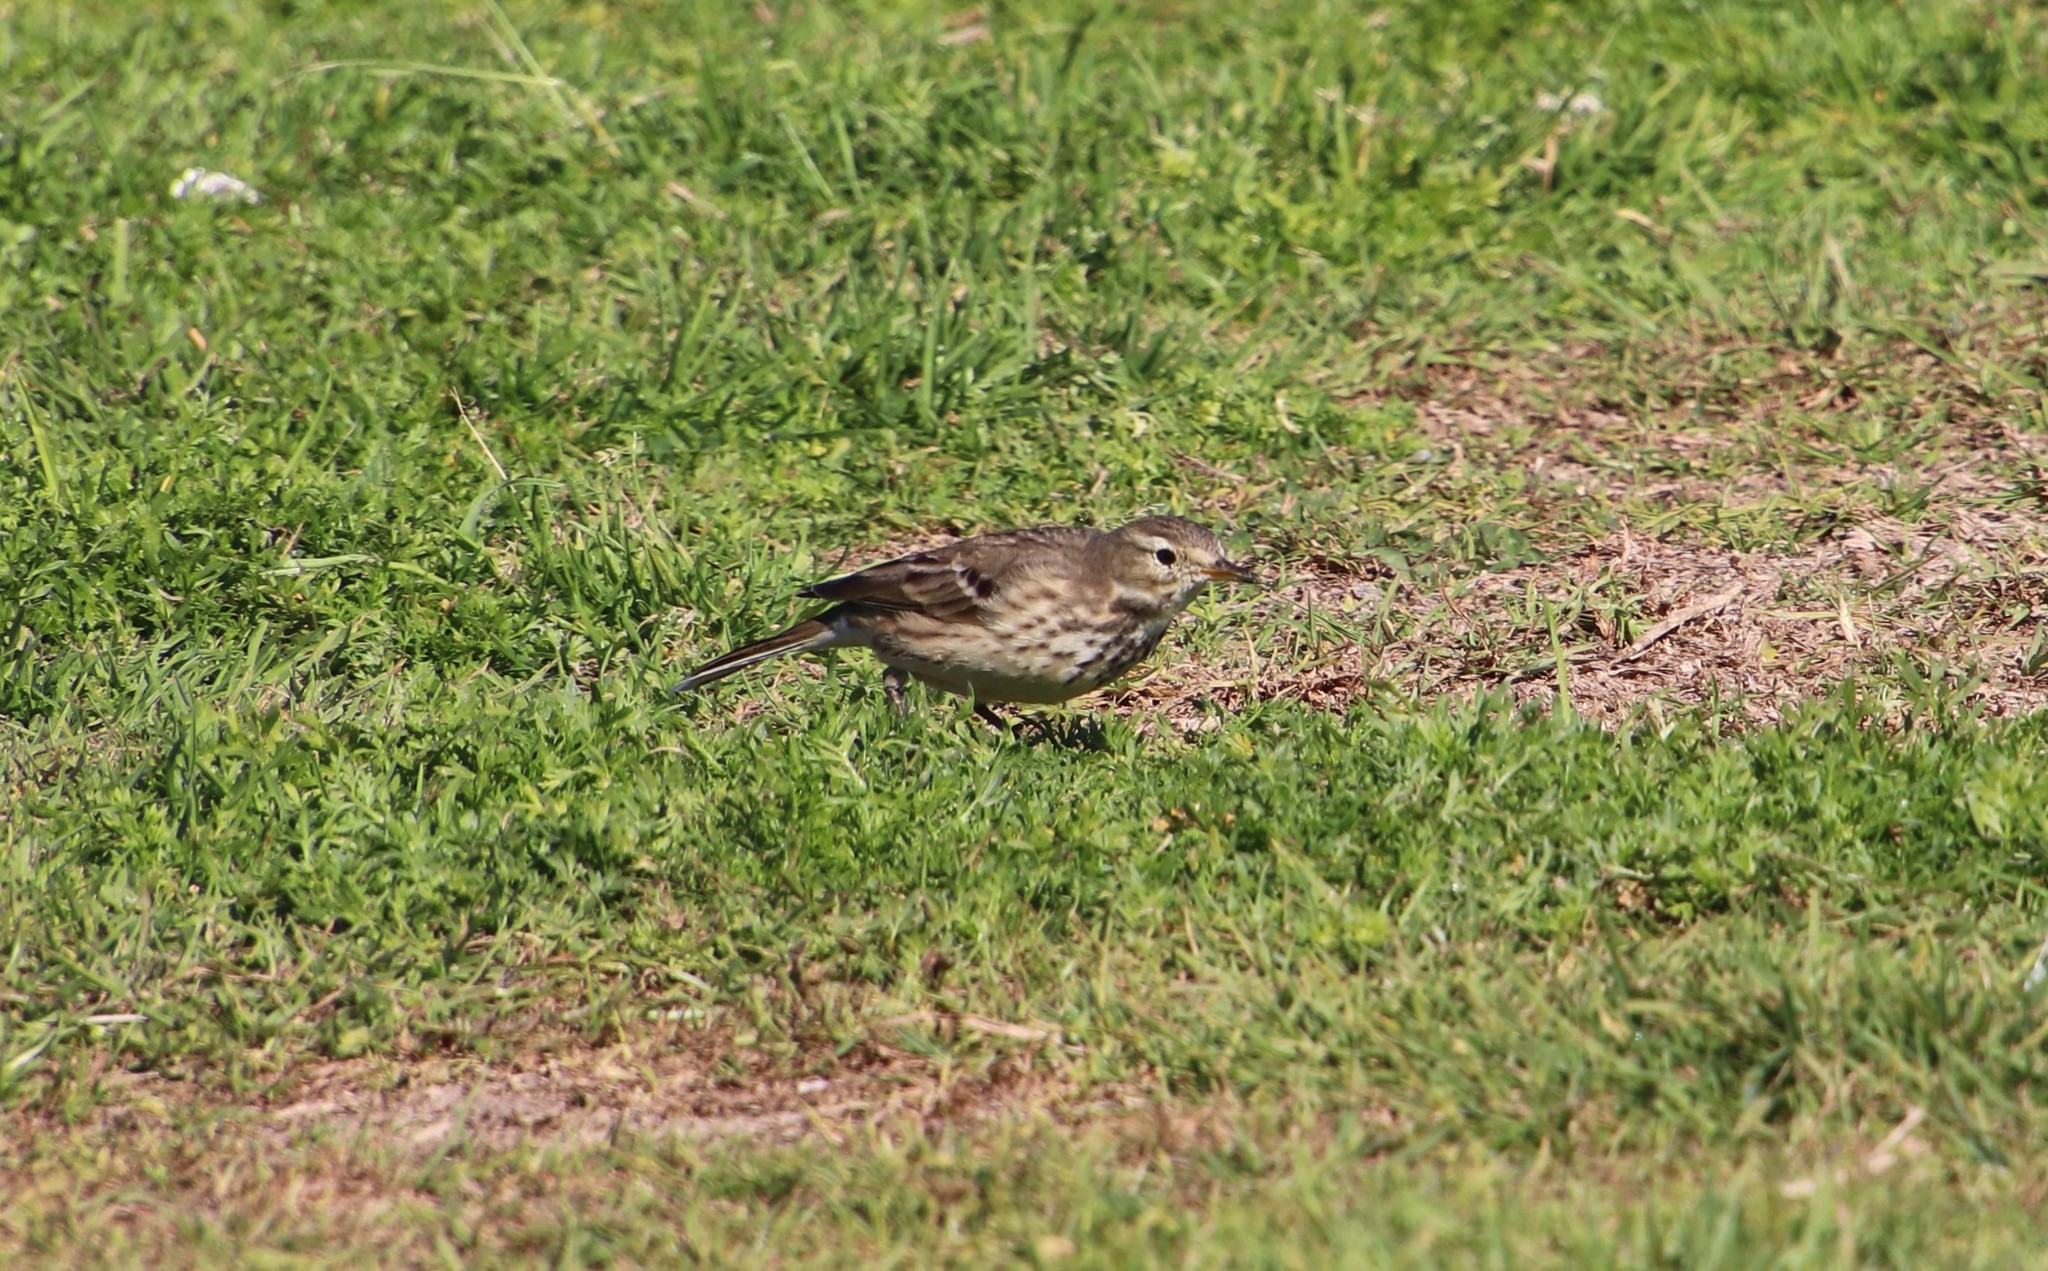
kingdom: Animalia
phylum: Chordata
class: Aves
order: Passeriformes
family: Motacillidae
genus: Anthus
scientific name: Anthus rubescens
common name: Buff-bellied pipit
